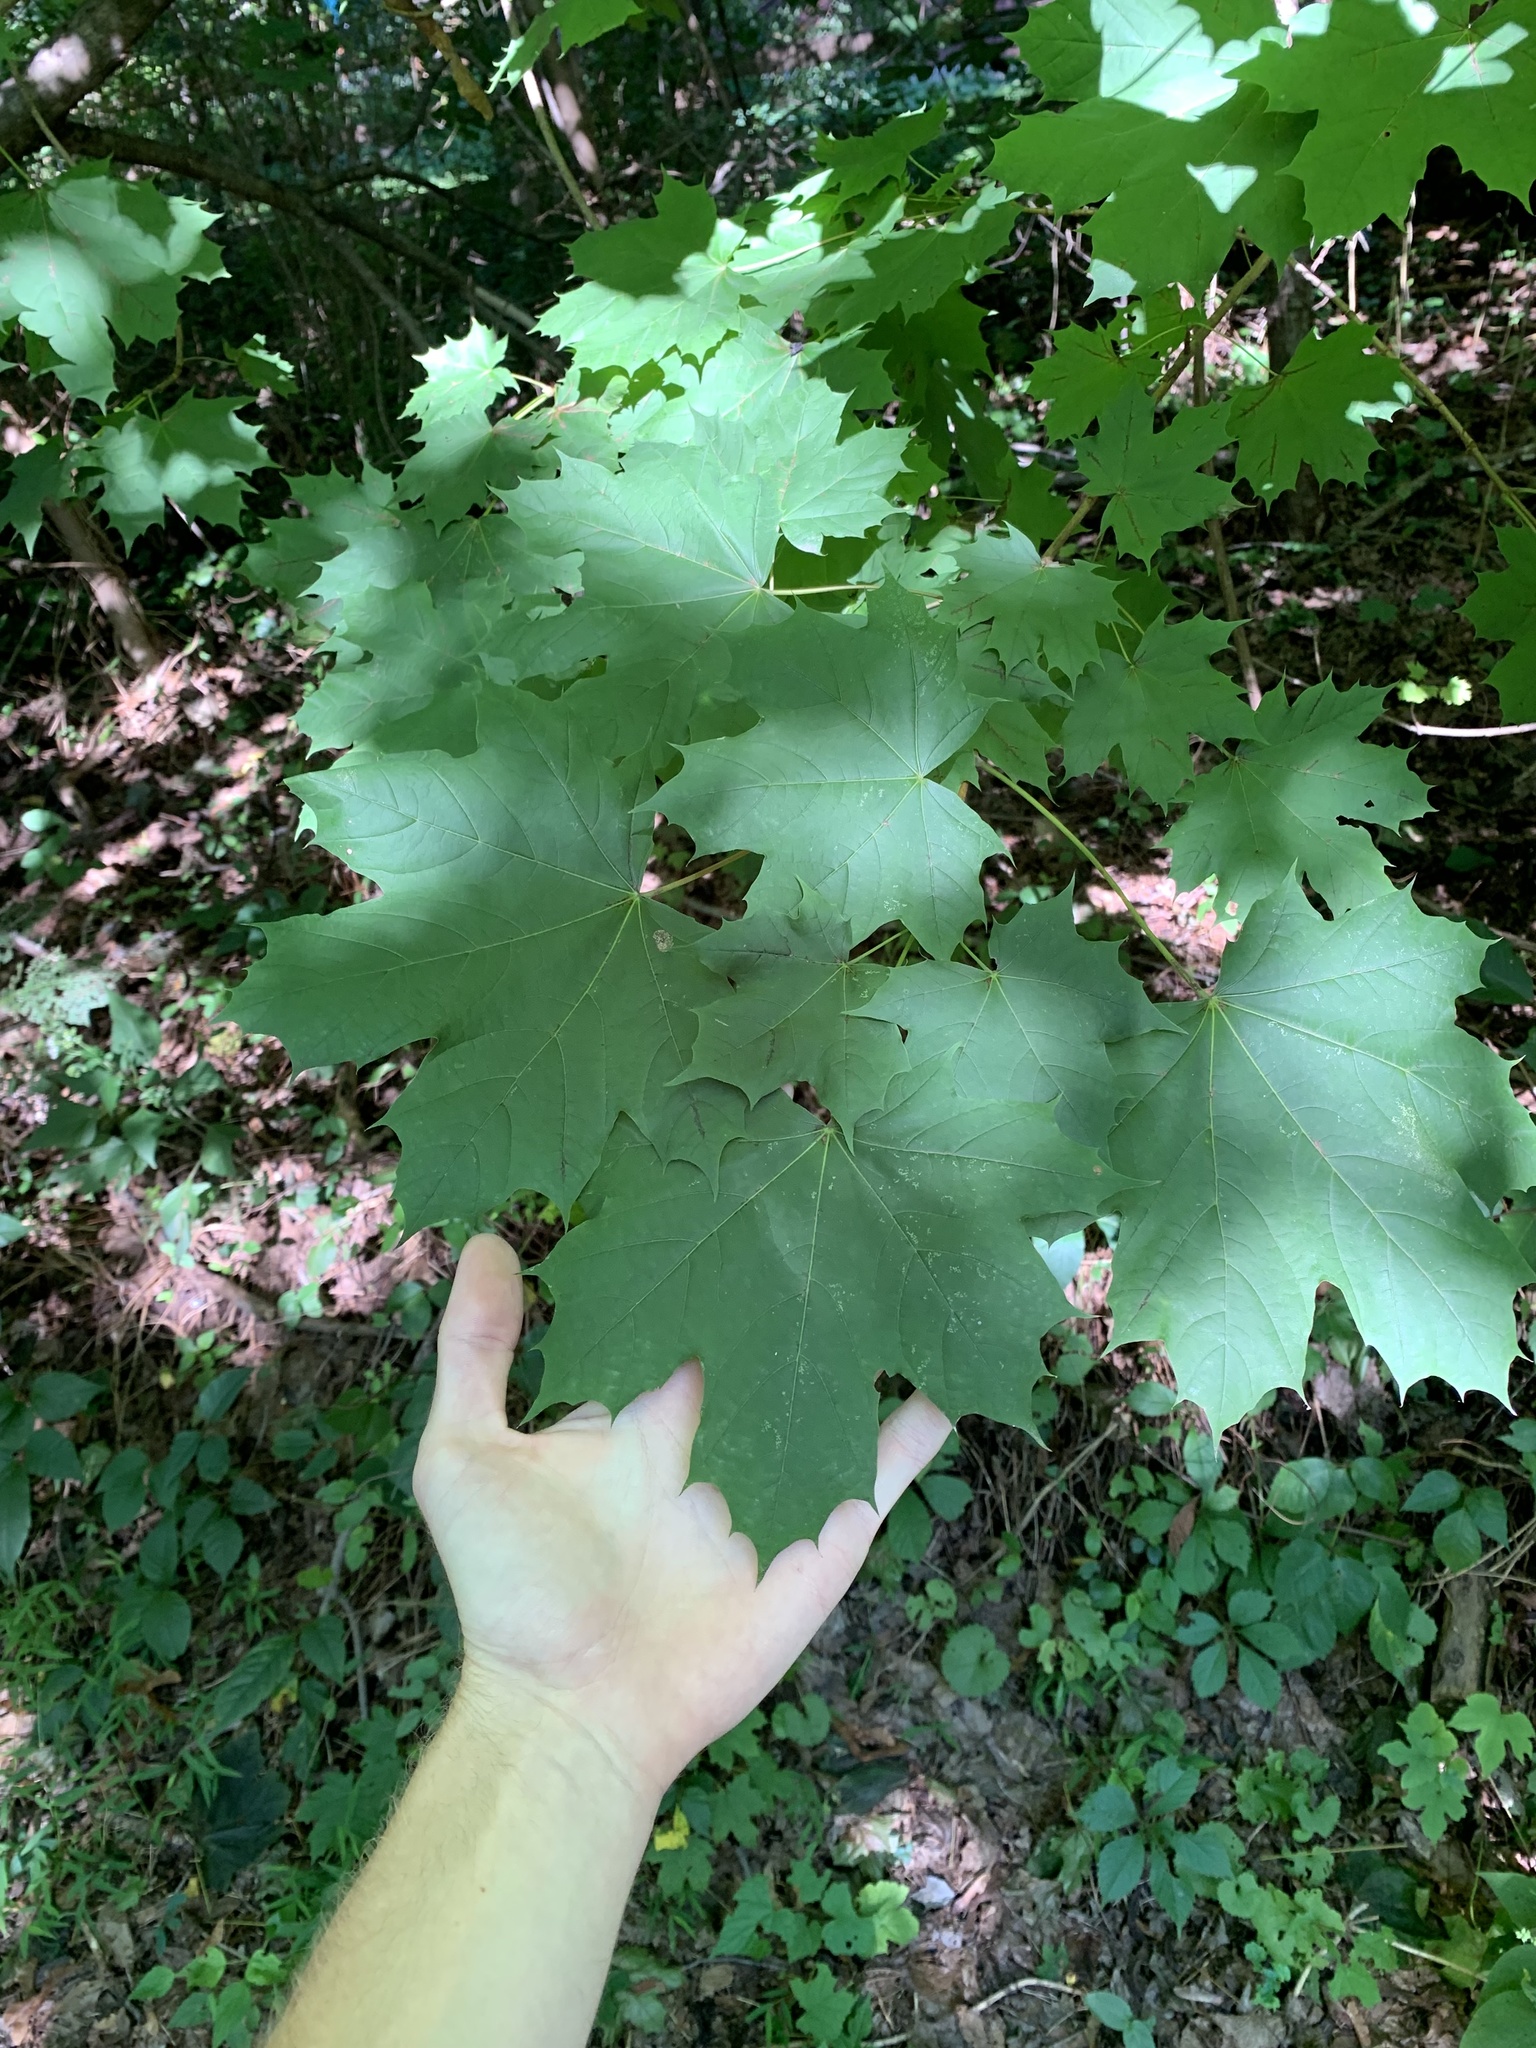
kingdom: Plantae
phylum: Tracheophyta
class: Magnoliopsida
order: Sapindales
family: Sapindaceae
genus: Acer
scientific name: Acer platanoides
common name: Norway maple
